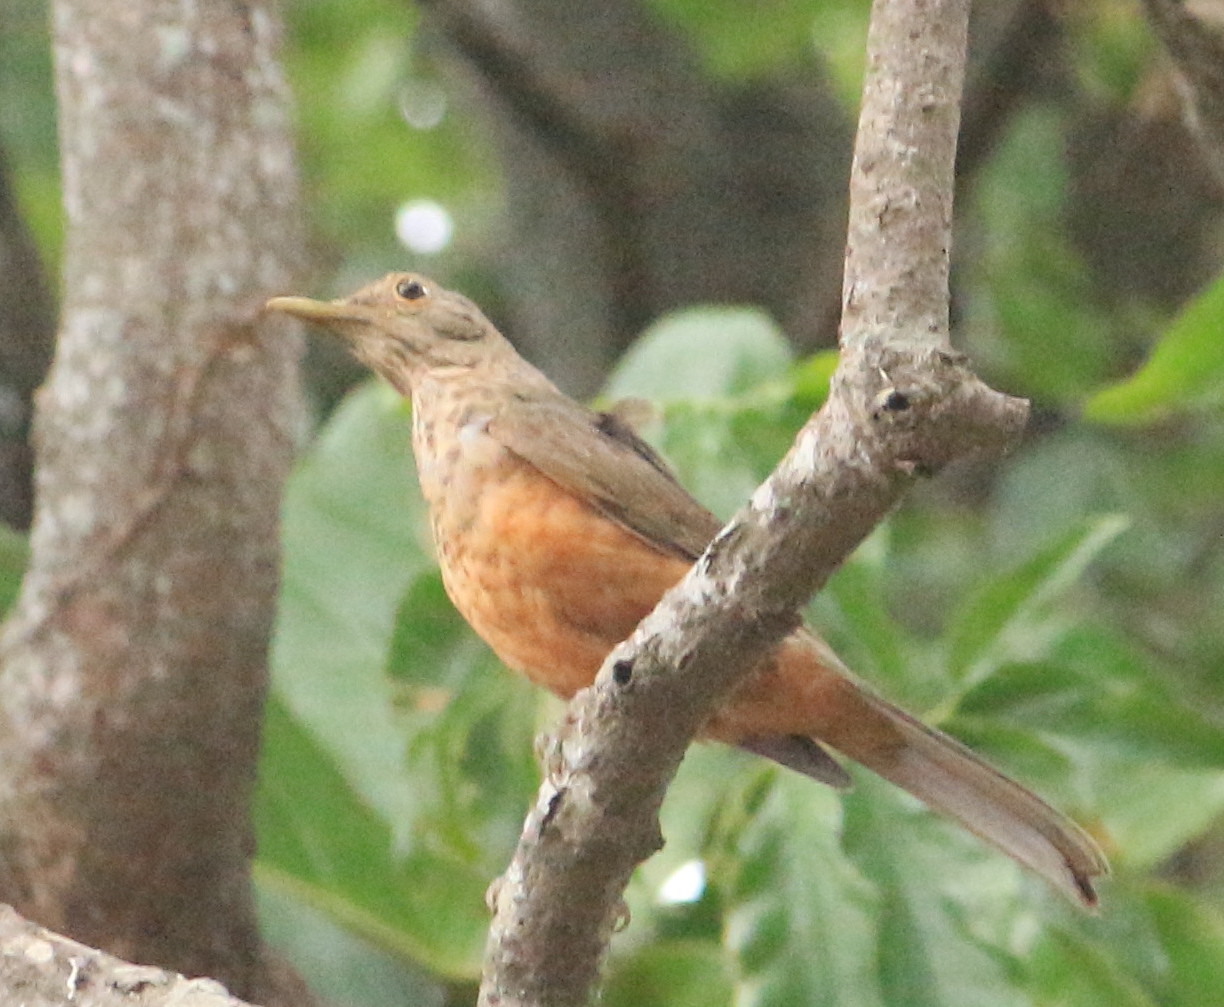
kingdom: Animalia
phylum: Chordata
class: Aves
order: Passeriformes
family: Turdidae
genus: Turdus
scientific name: Turdus rufiventris
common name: Rufous-bellied thrush
